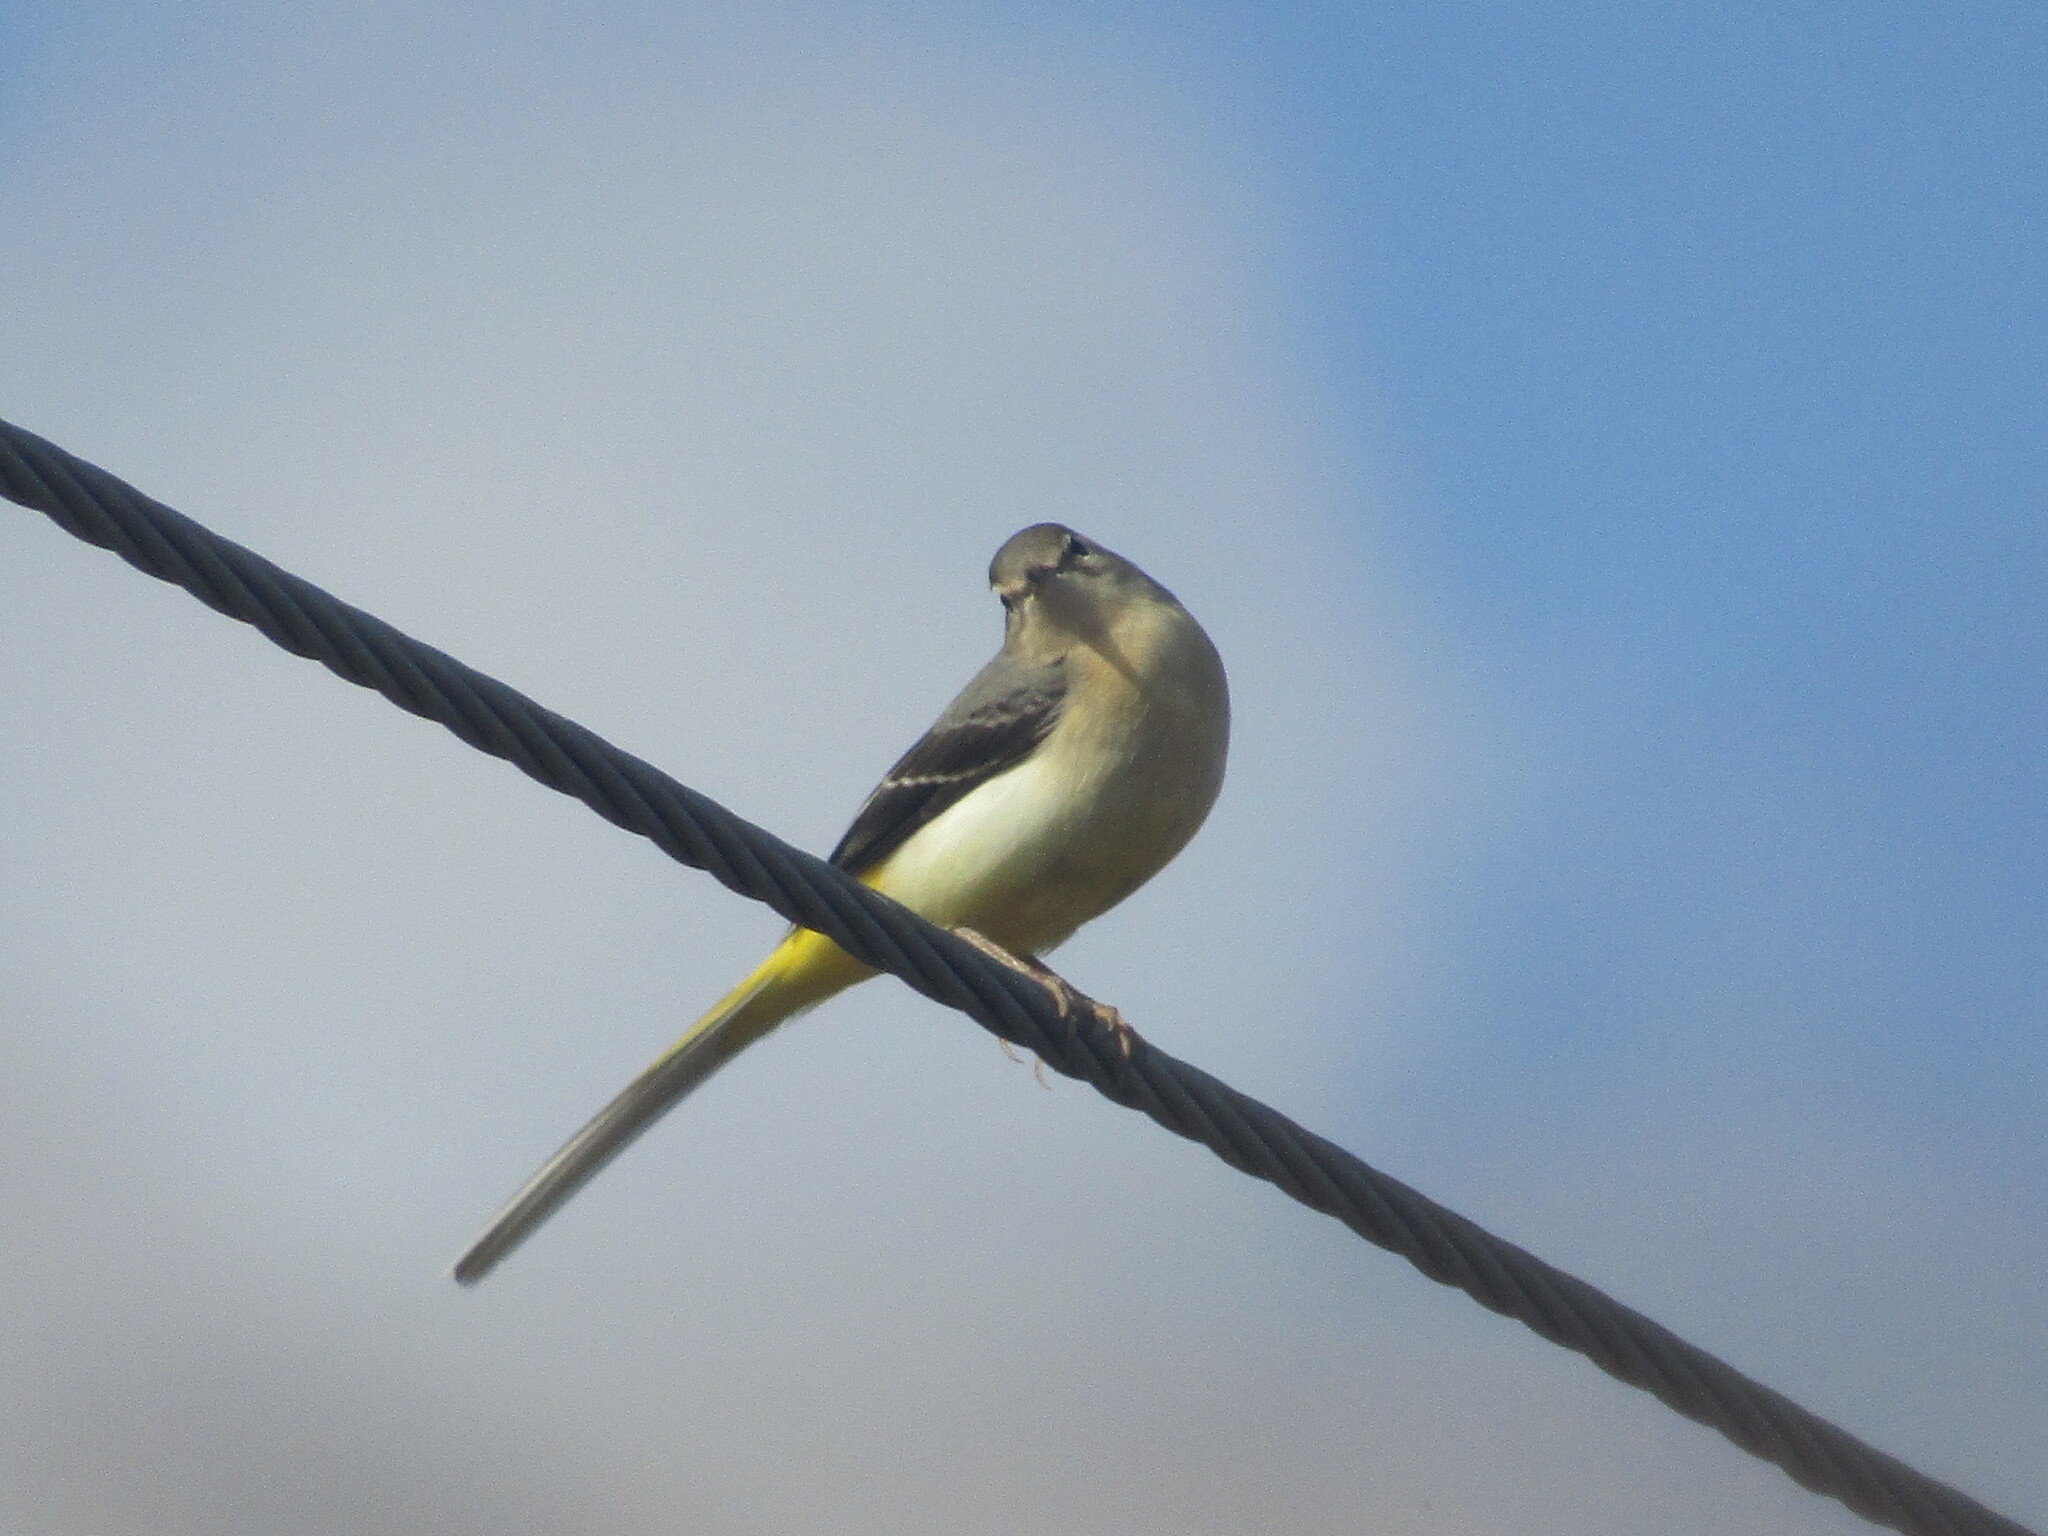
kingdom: Animalia
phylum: Chordata
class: Aves
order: Passeriformes
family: Motacillidae
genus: Motacilla
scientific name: Motacilla cinerea
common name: Grey wagtail
